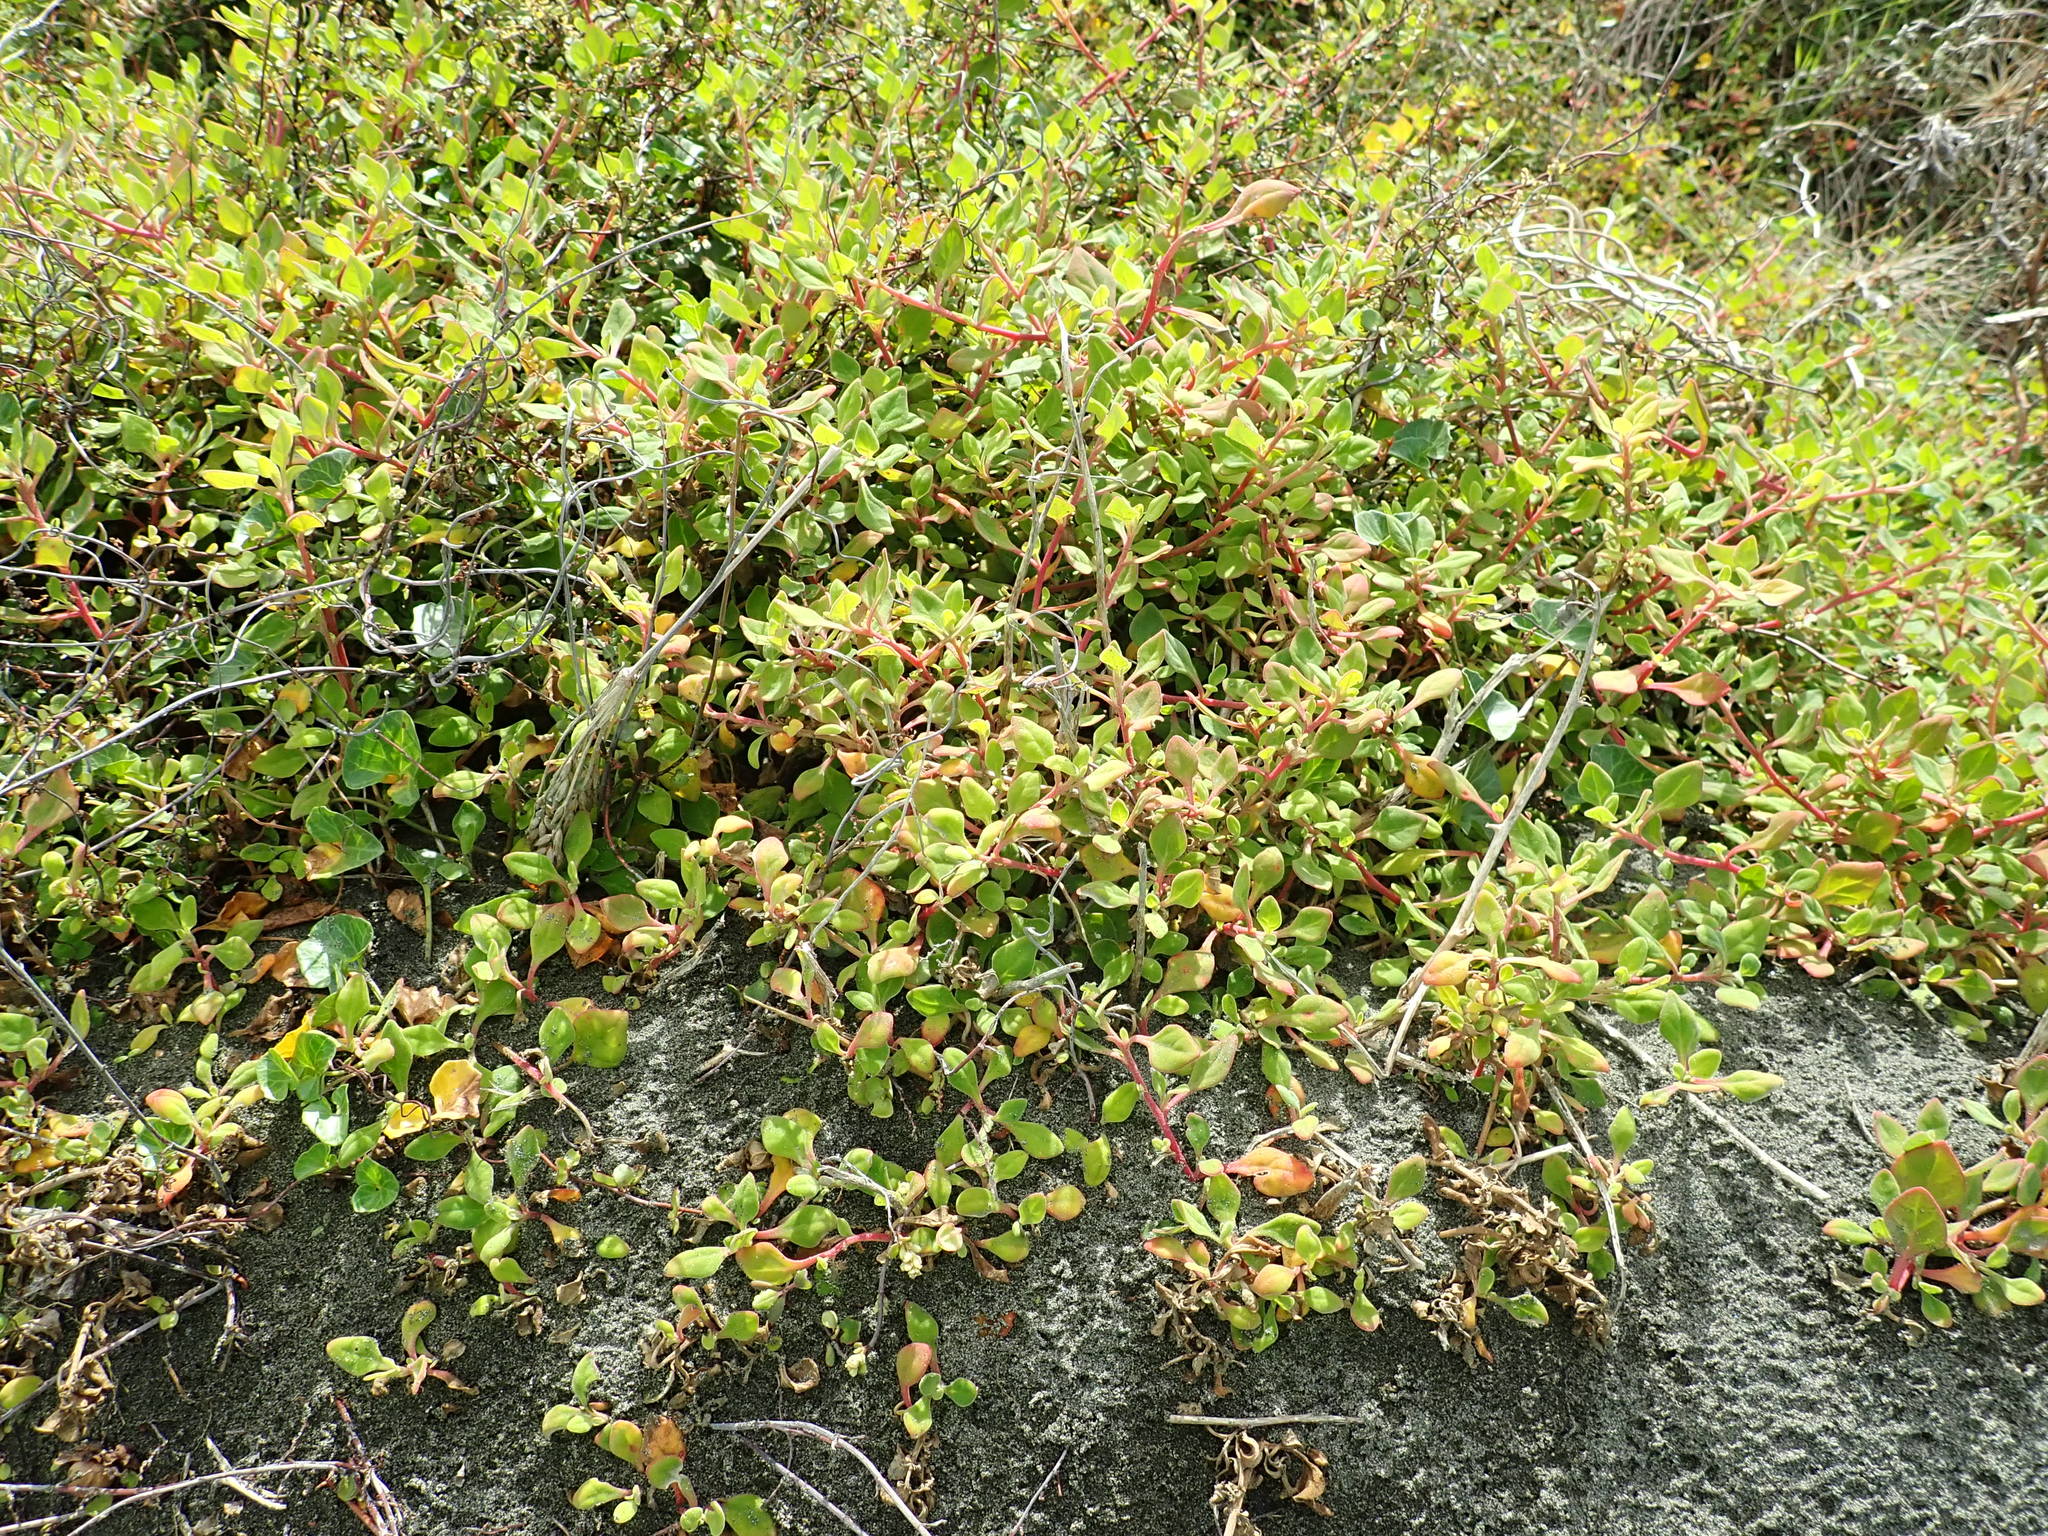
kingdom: Plantae
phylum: Tracheophyta
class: Magnoliopsida
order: Caryophyllales
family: Aizoaceae
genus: Tetragonia
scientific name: Tetragonia implexicoma
